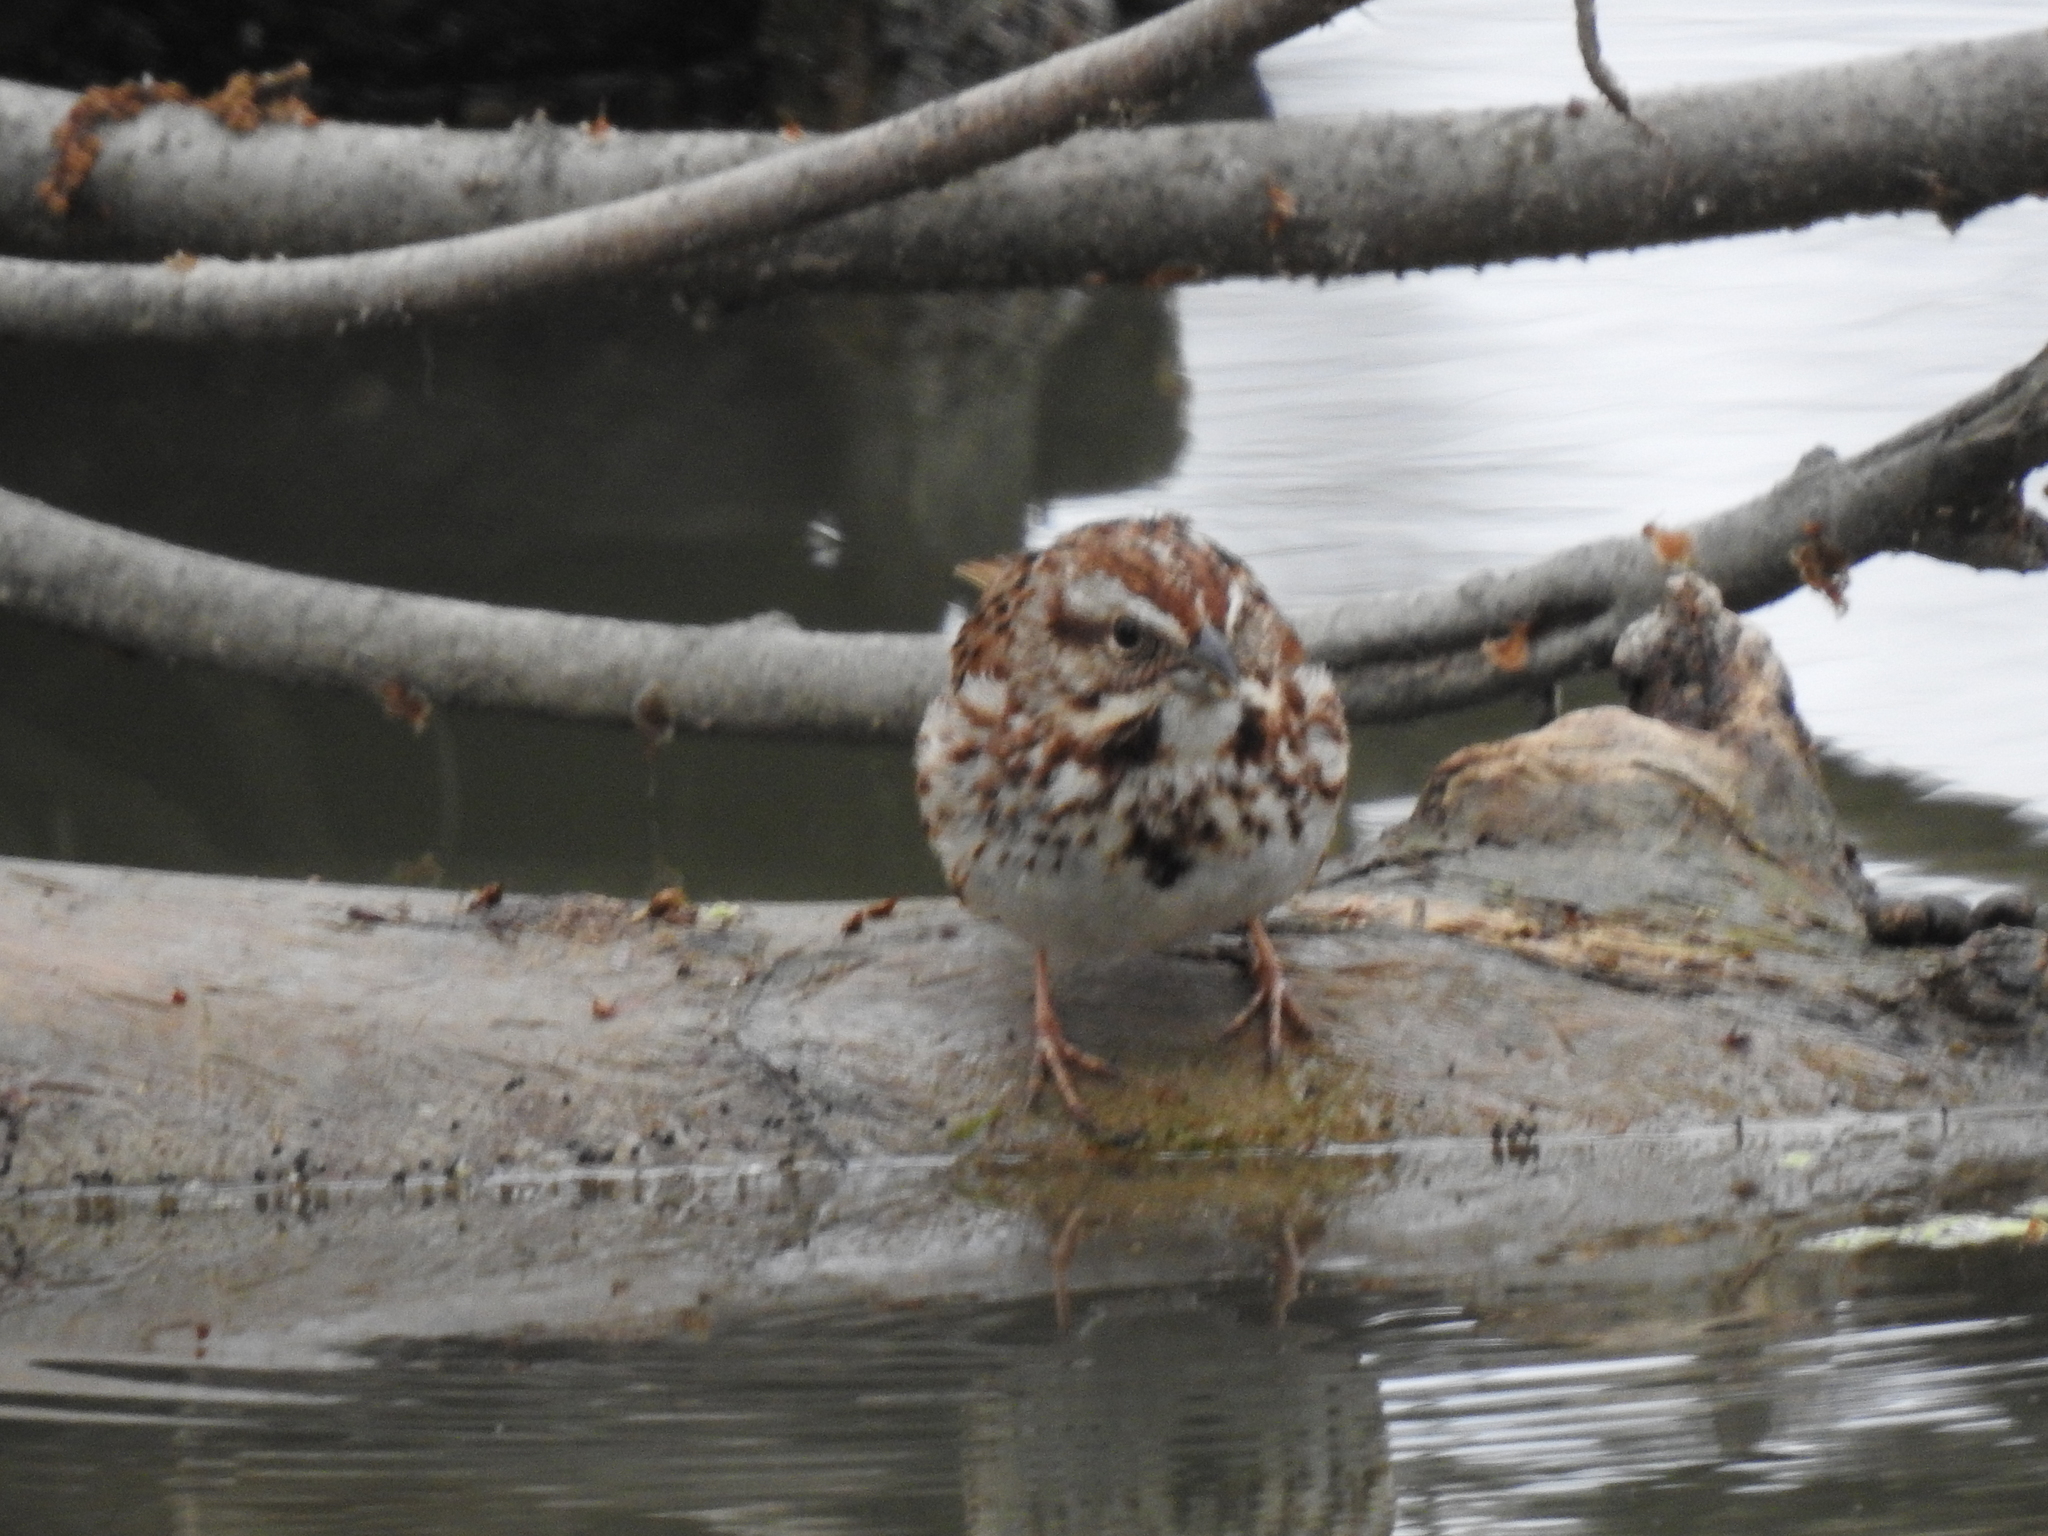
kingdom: Animalia
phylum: Chordata
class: Aves
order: Passeriformes
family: Passerellidae
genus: Melospiza
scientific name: Melospiza melodia
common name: Song sparrow
